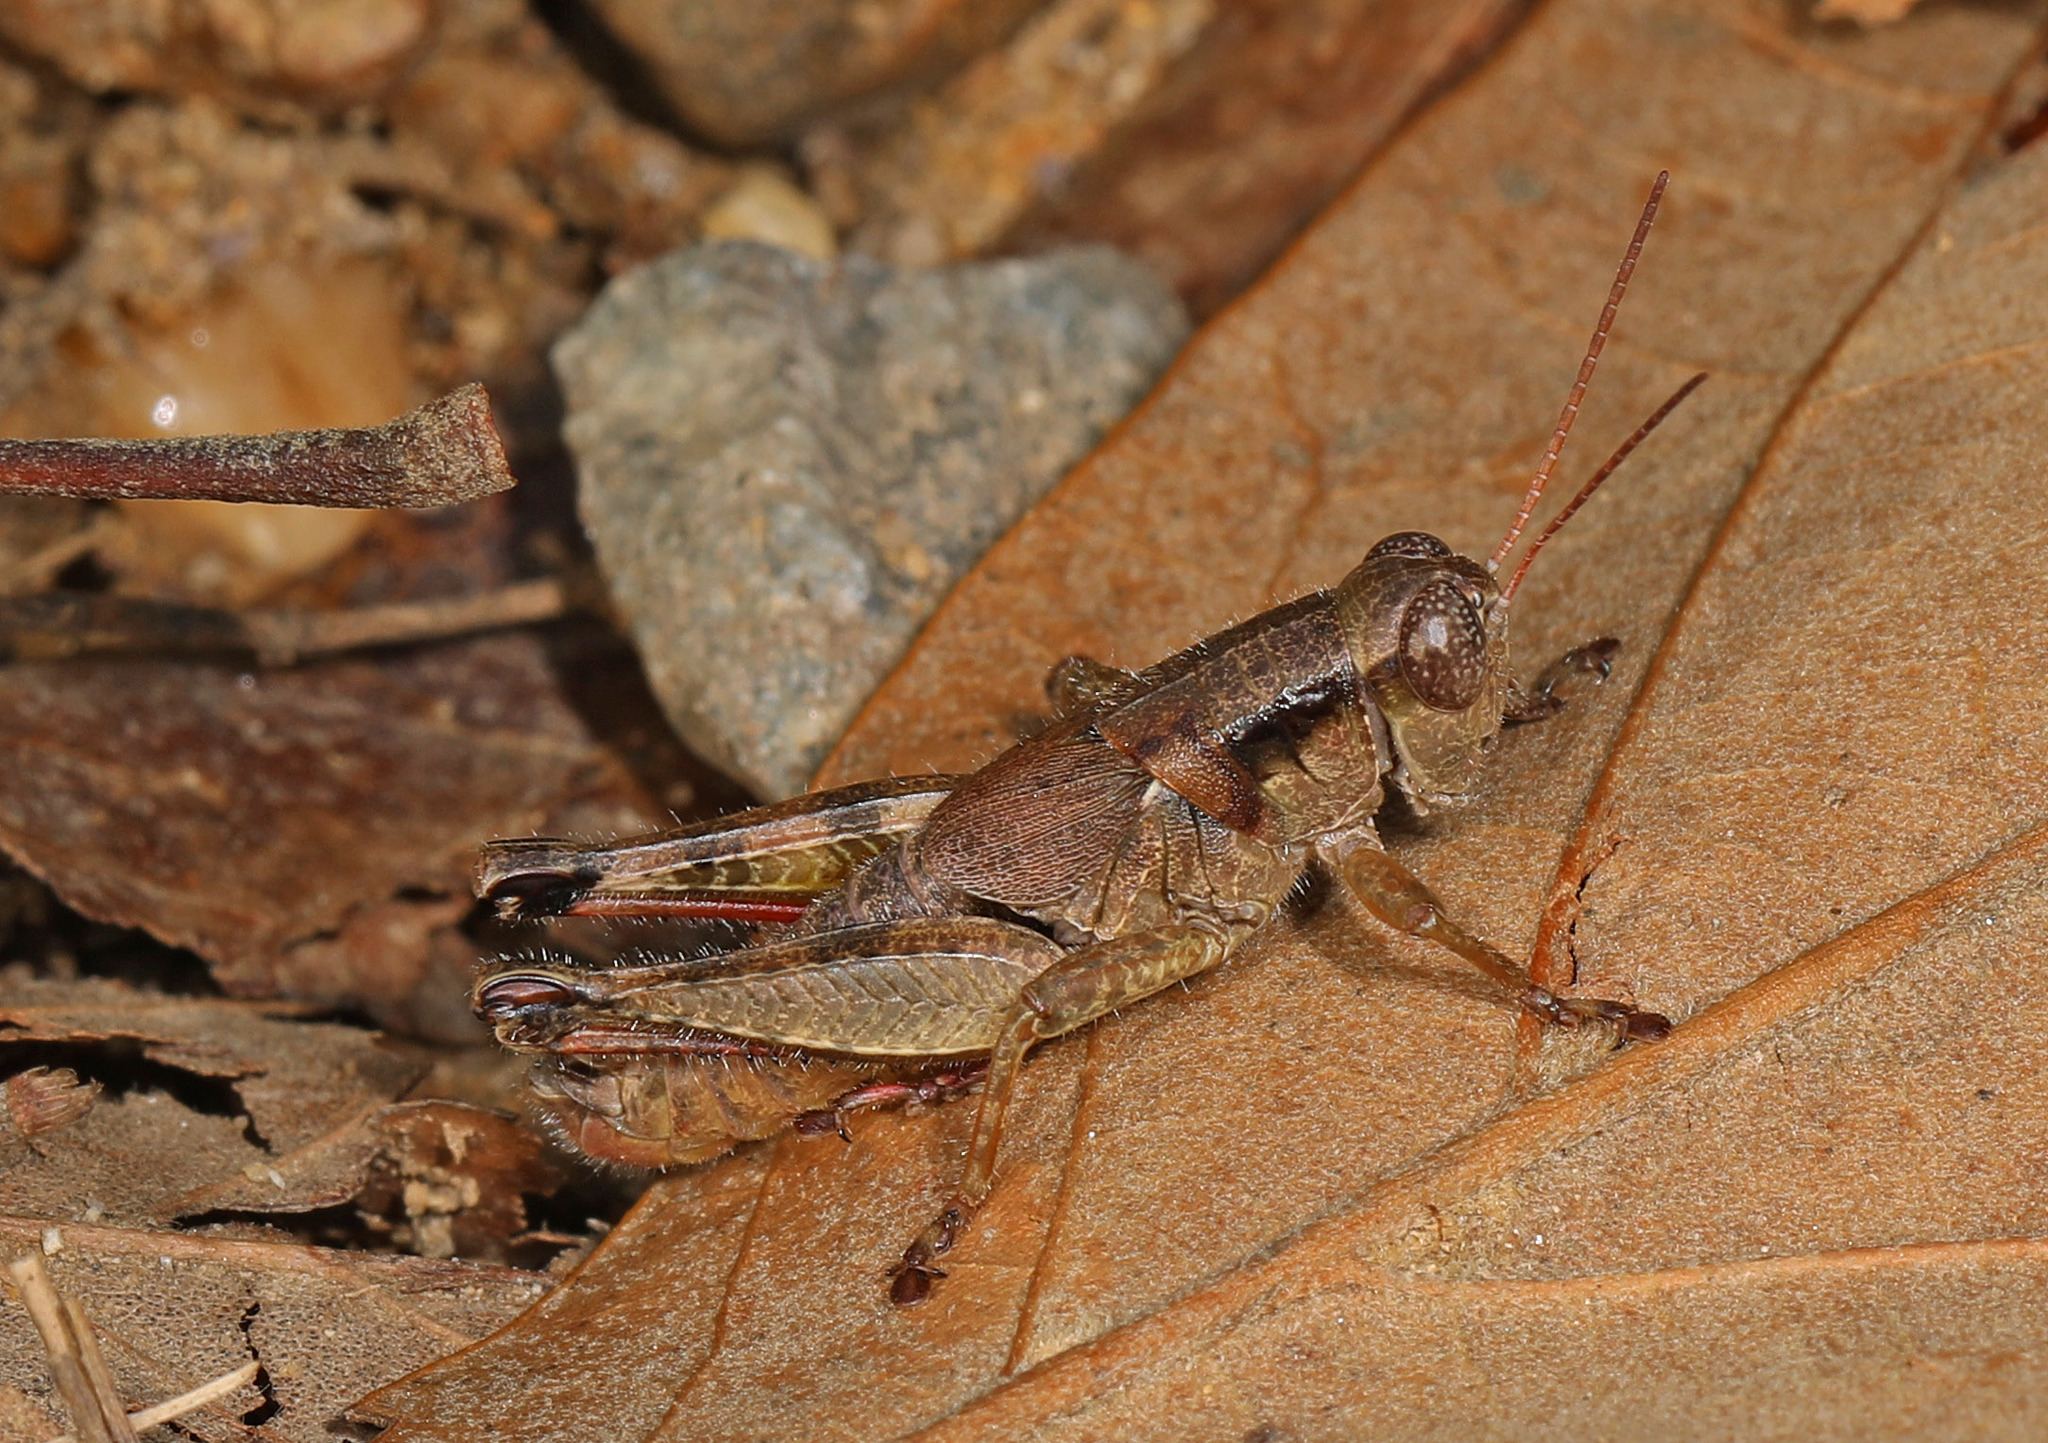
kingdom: Animalia
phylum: Arthropoda
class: Insecta
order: Orthoptera
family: Acrididae
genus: Melanoplus
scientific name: Melanoplus scudderi
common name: Scudder's short-winged locust
